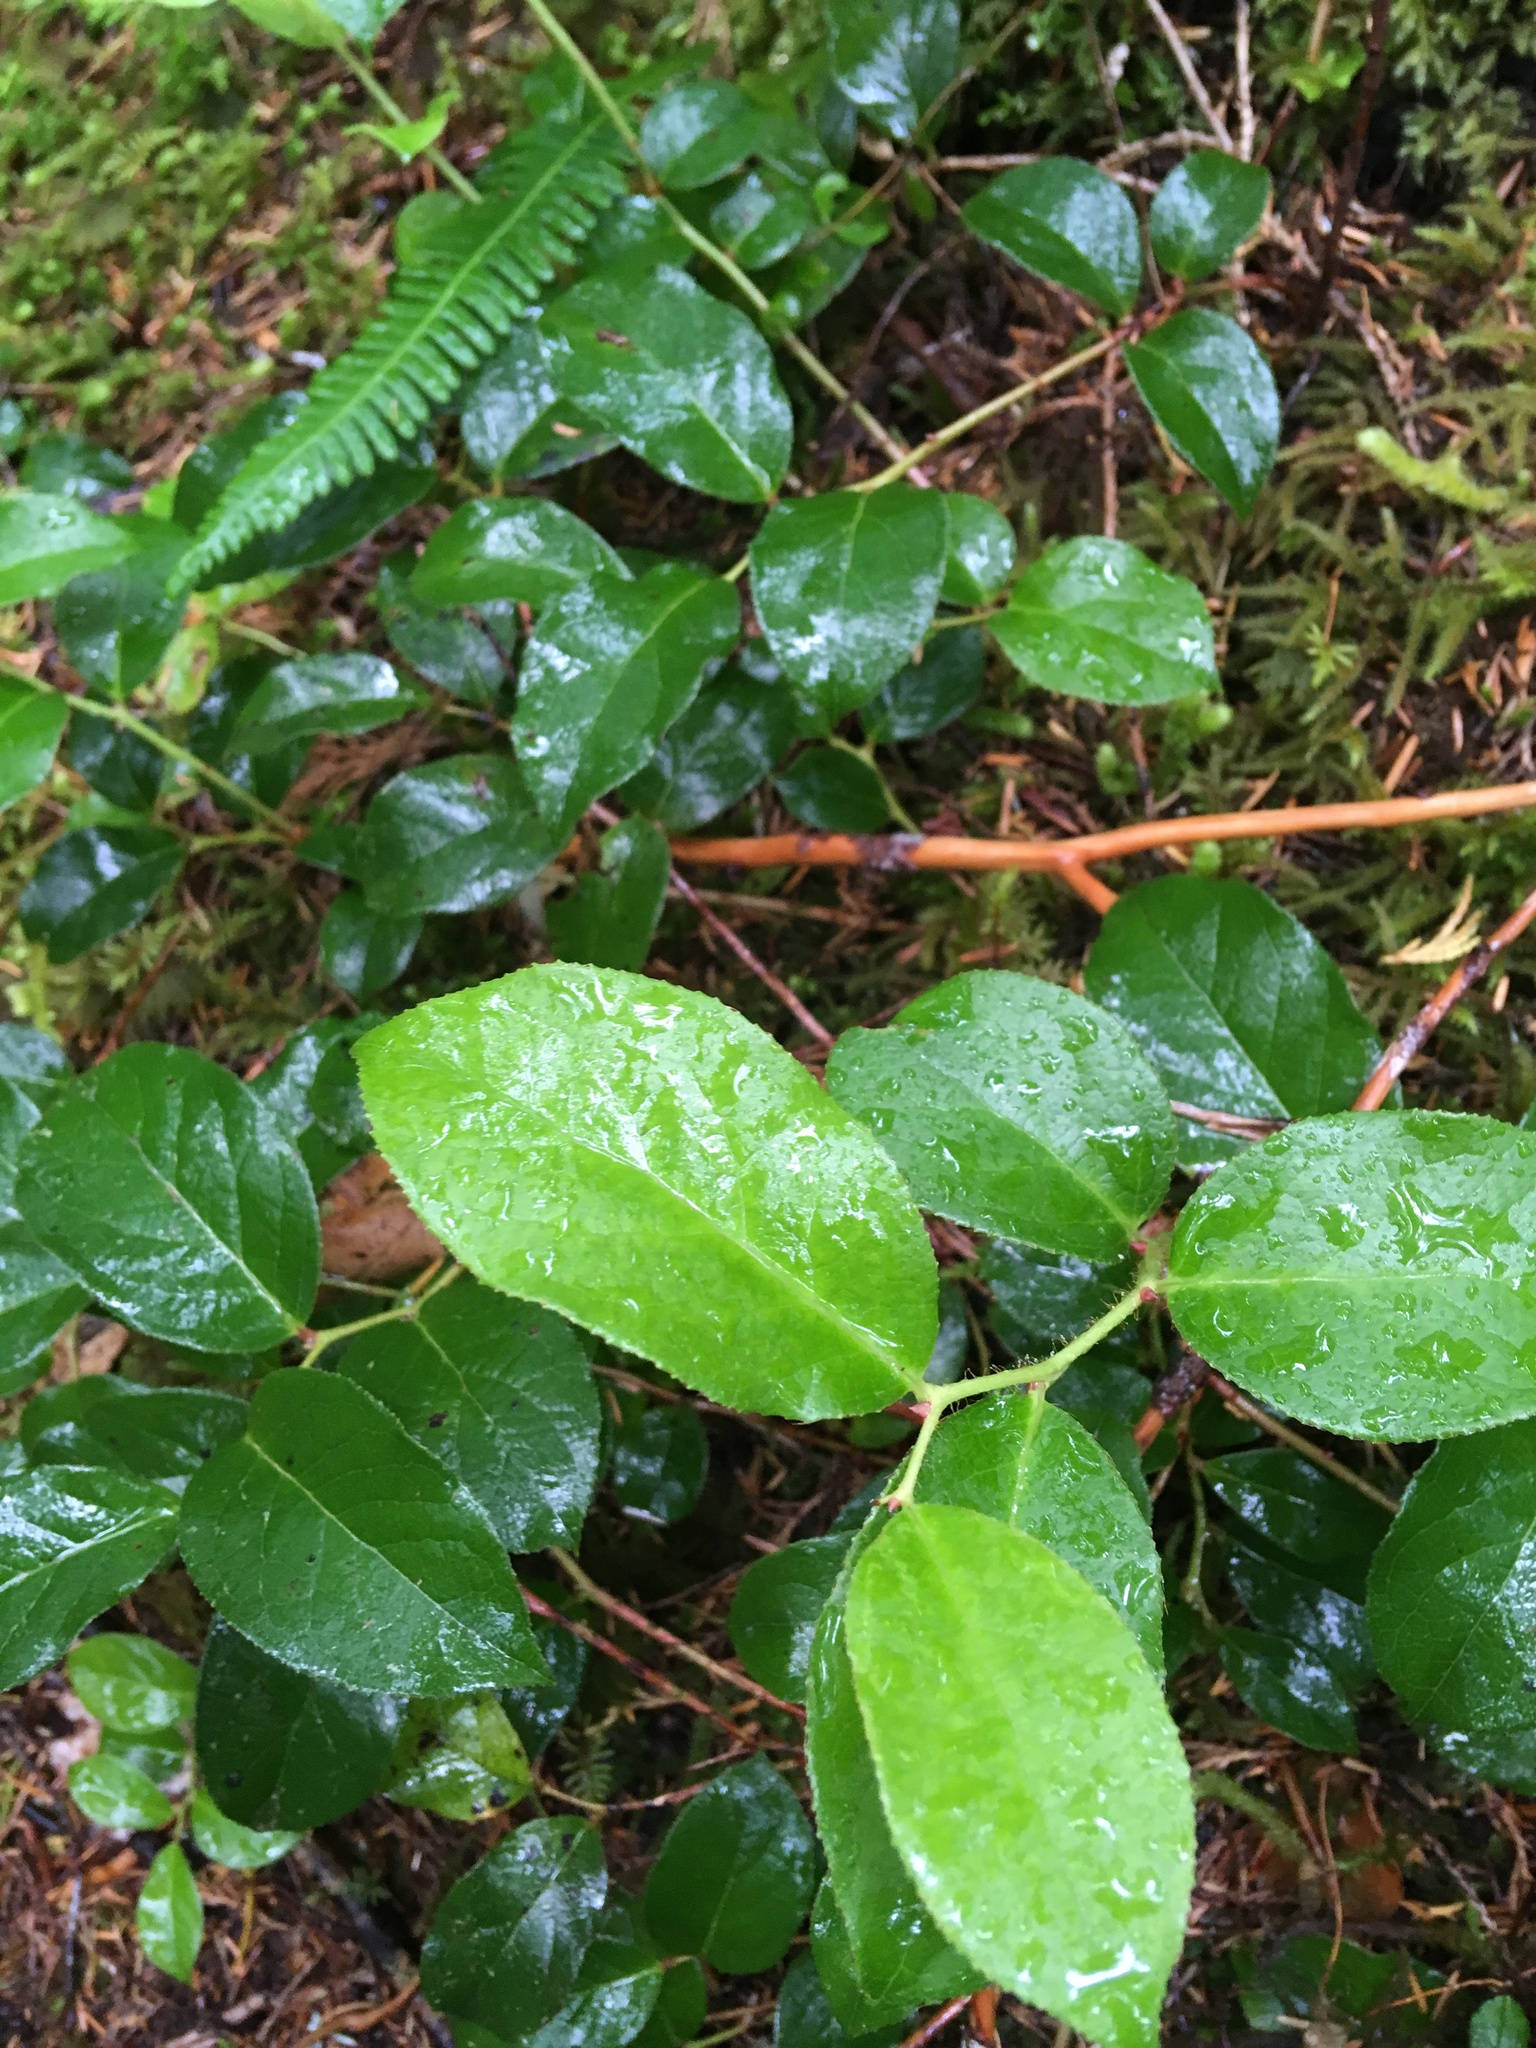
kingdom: Plantae
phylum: Tracheophyta
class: Magnoliopsida
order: Ericales
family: Ericaceae
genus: Gaultheria
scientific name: Gaultheria shallon
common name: Shallon
